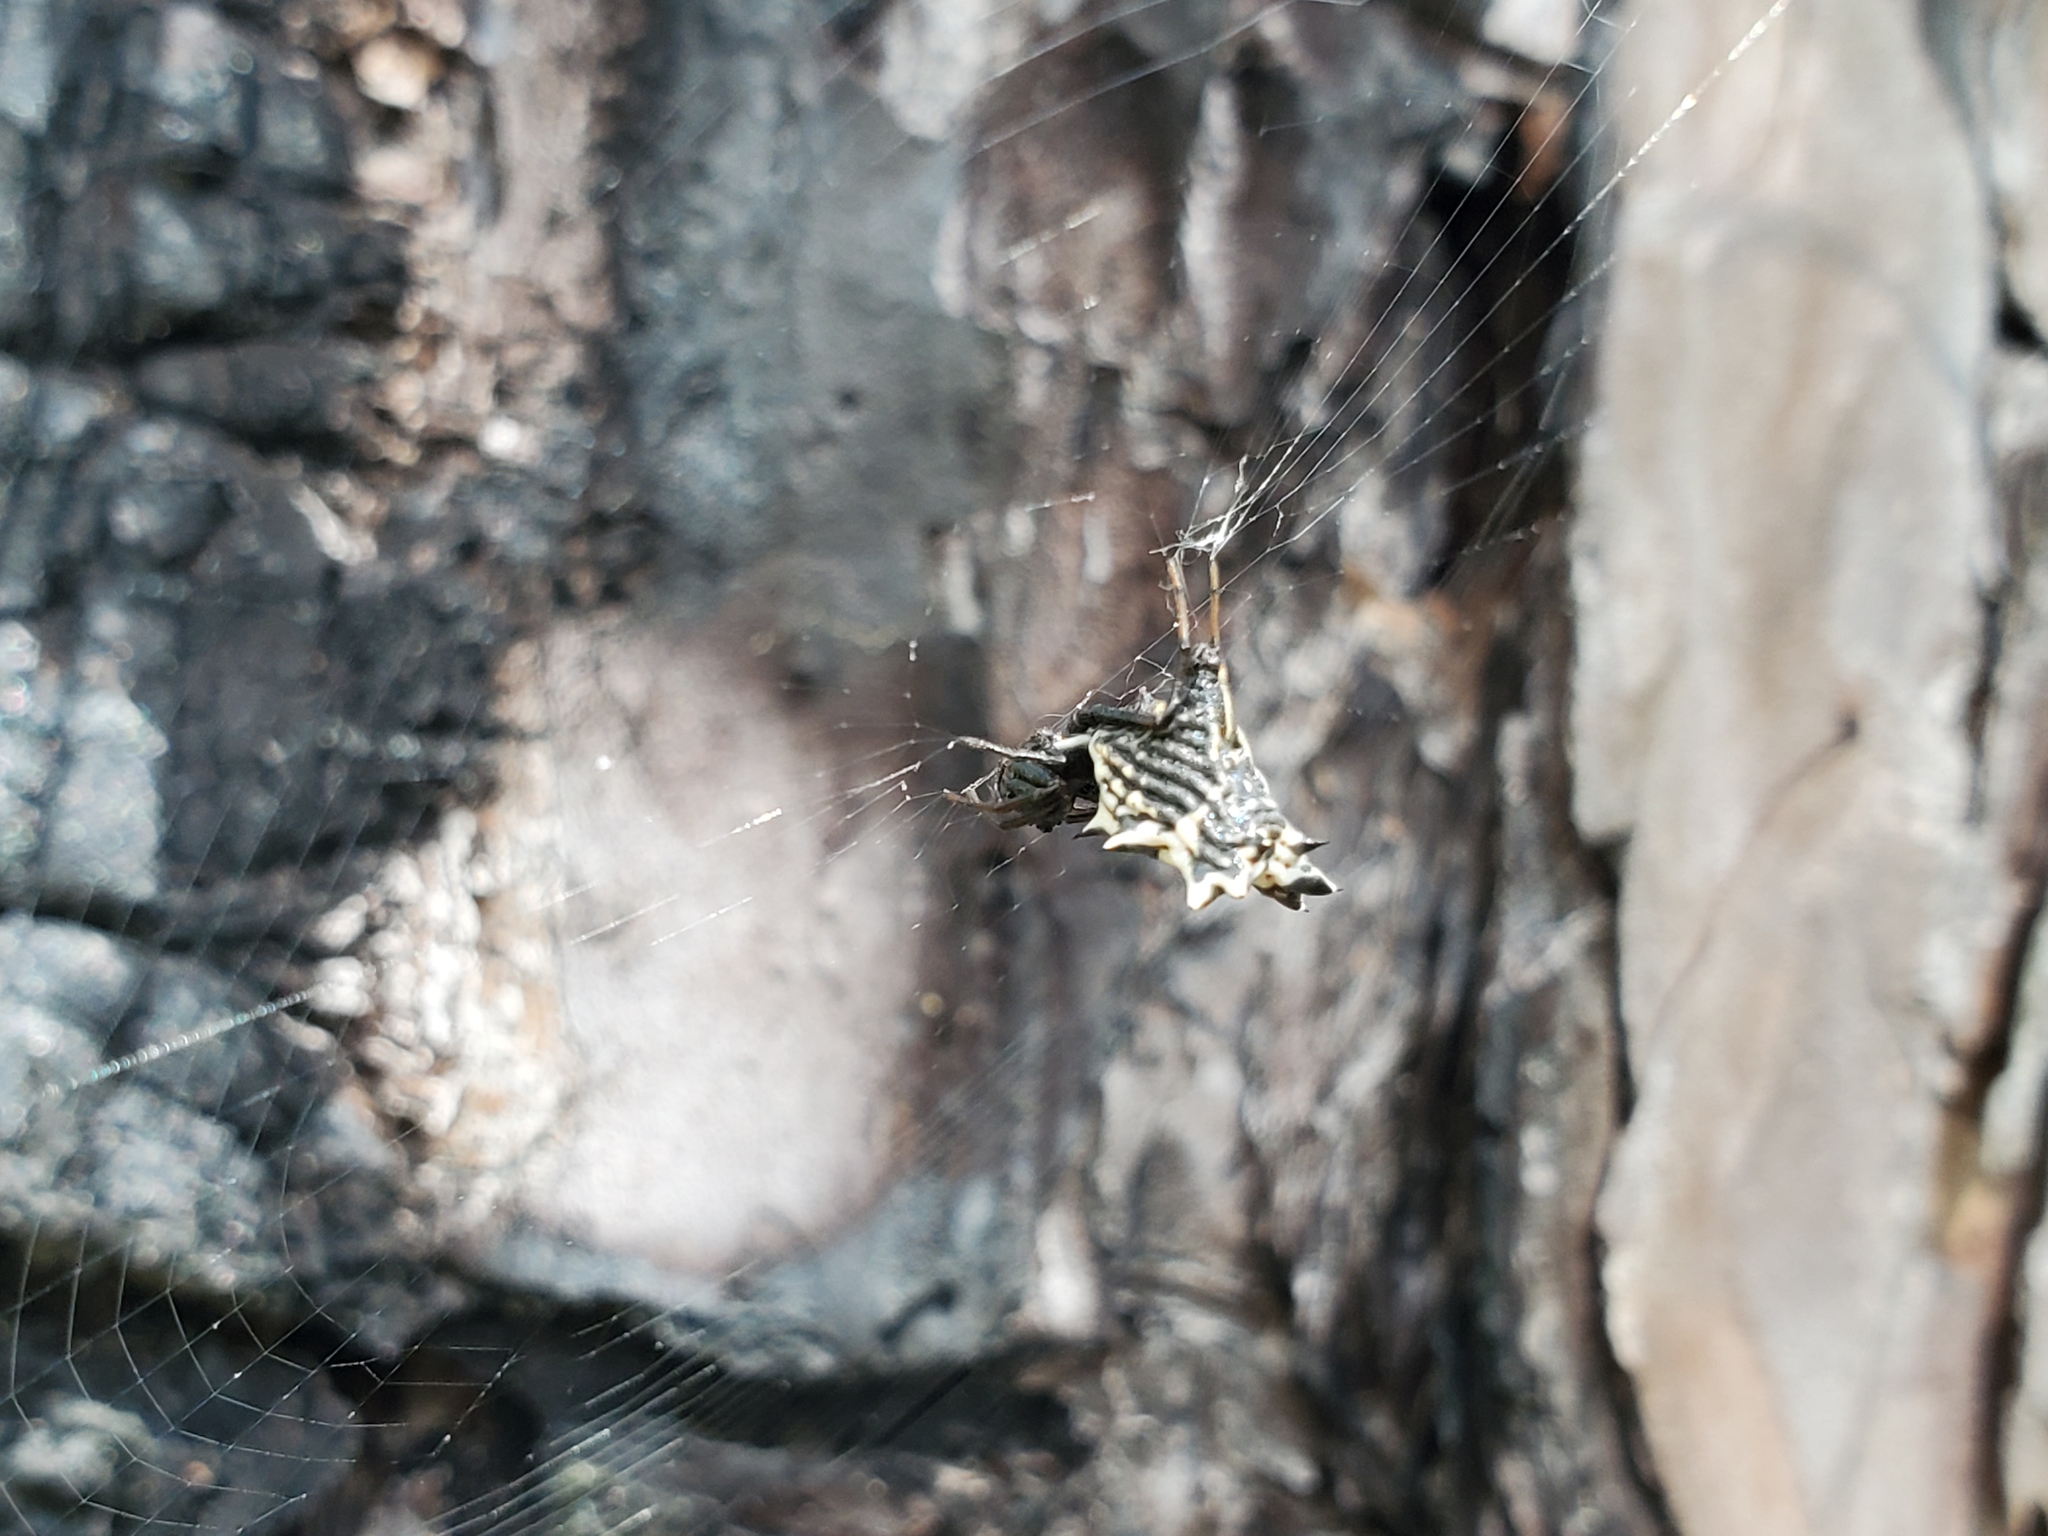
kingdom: Animalia
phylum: Arthropoda
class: Arachnida
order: Araneae
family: Araneidae
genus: Micrathena
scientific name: Micrathena gracilis
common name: Orb weavers
